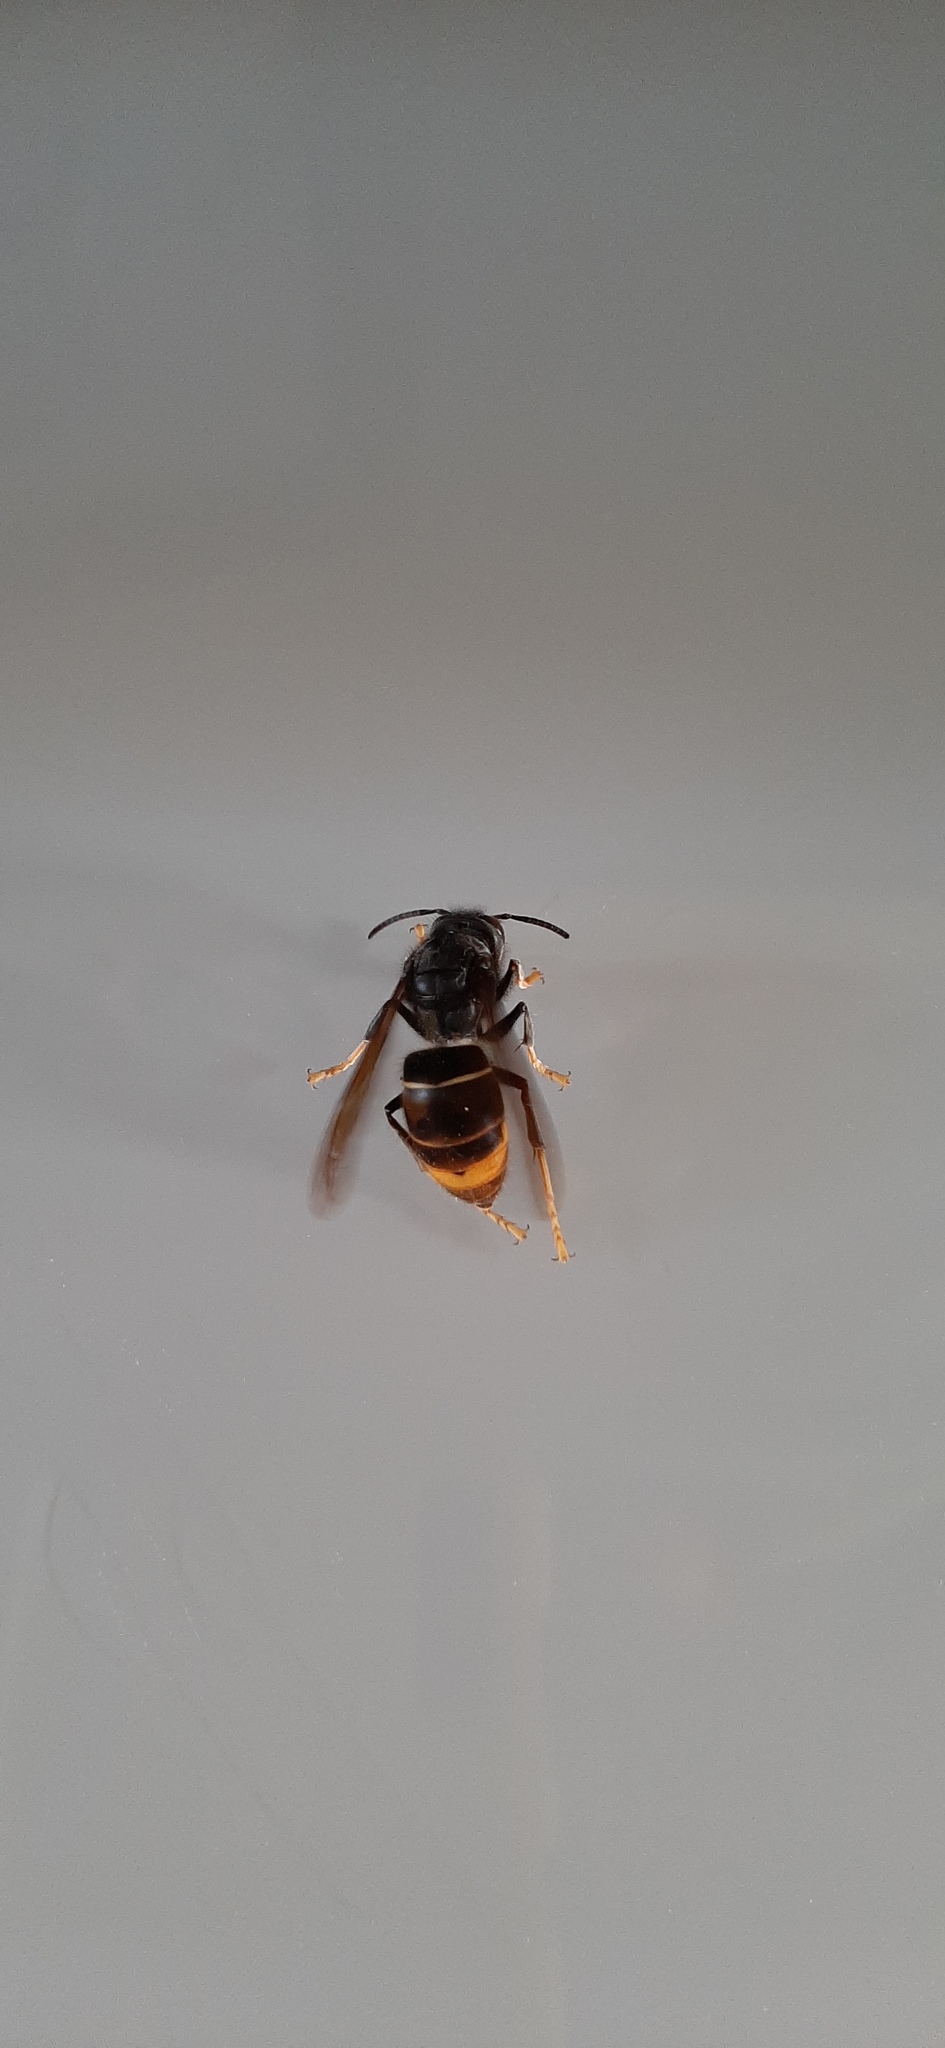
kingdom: Animalia
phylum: Arthropoda
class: Insecta
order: Hymenoptera
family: Vespidae
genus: Vespa
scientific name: Vespa velutina
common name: Asian hornet
